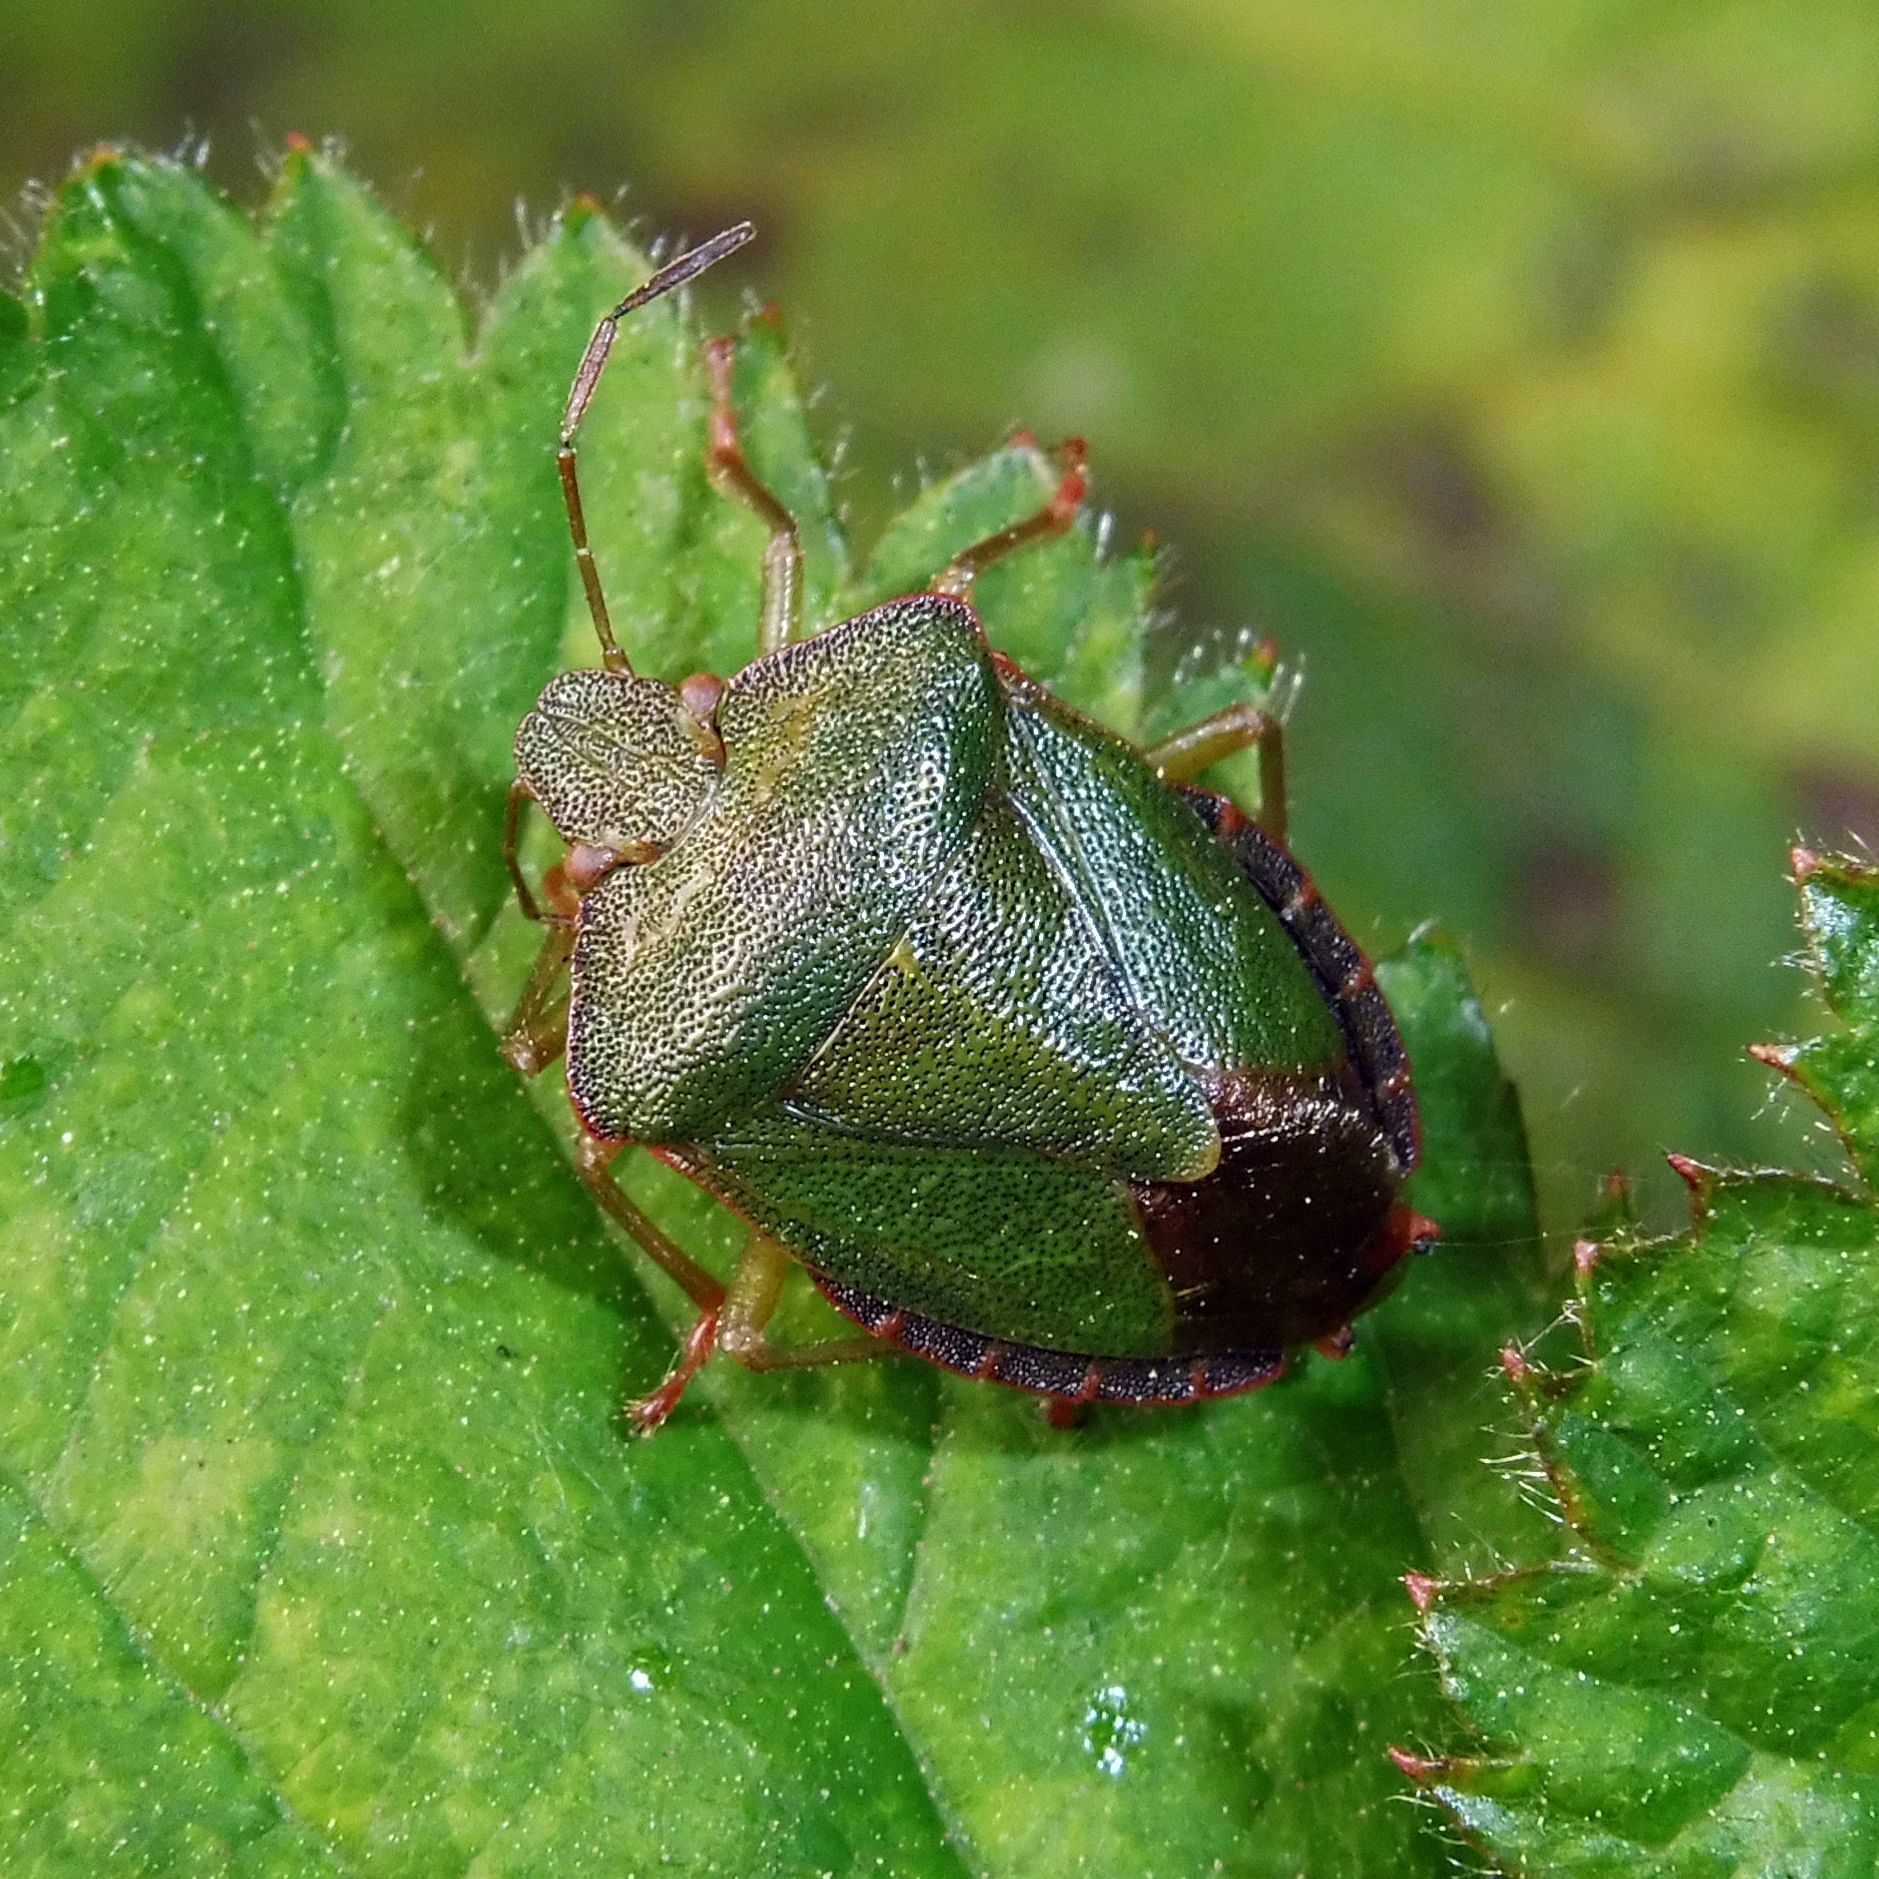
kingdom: Animalia
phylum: Arthropoda
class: Insecta
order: Hemiptera
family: Pentatomidae
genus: Palomena
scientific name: Palomena prasina
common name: Green shieldbug
